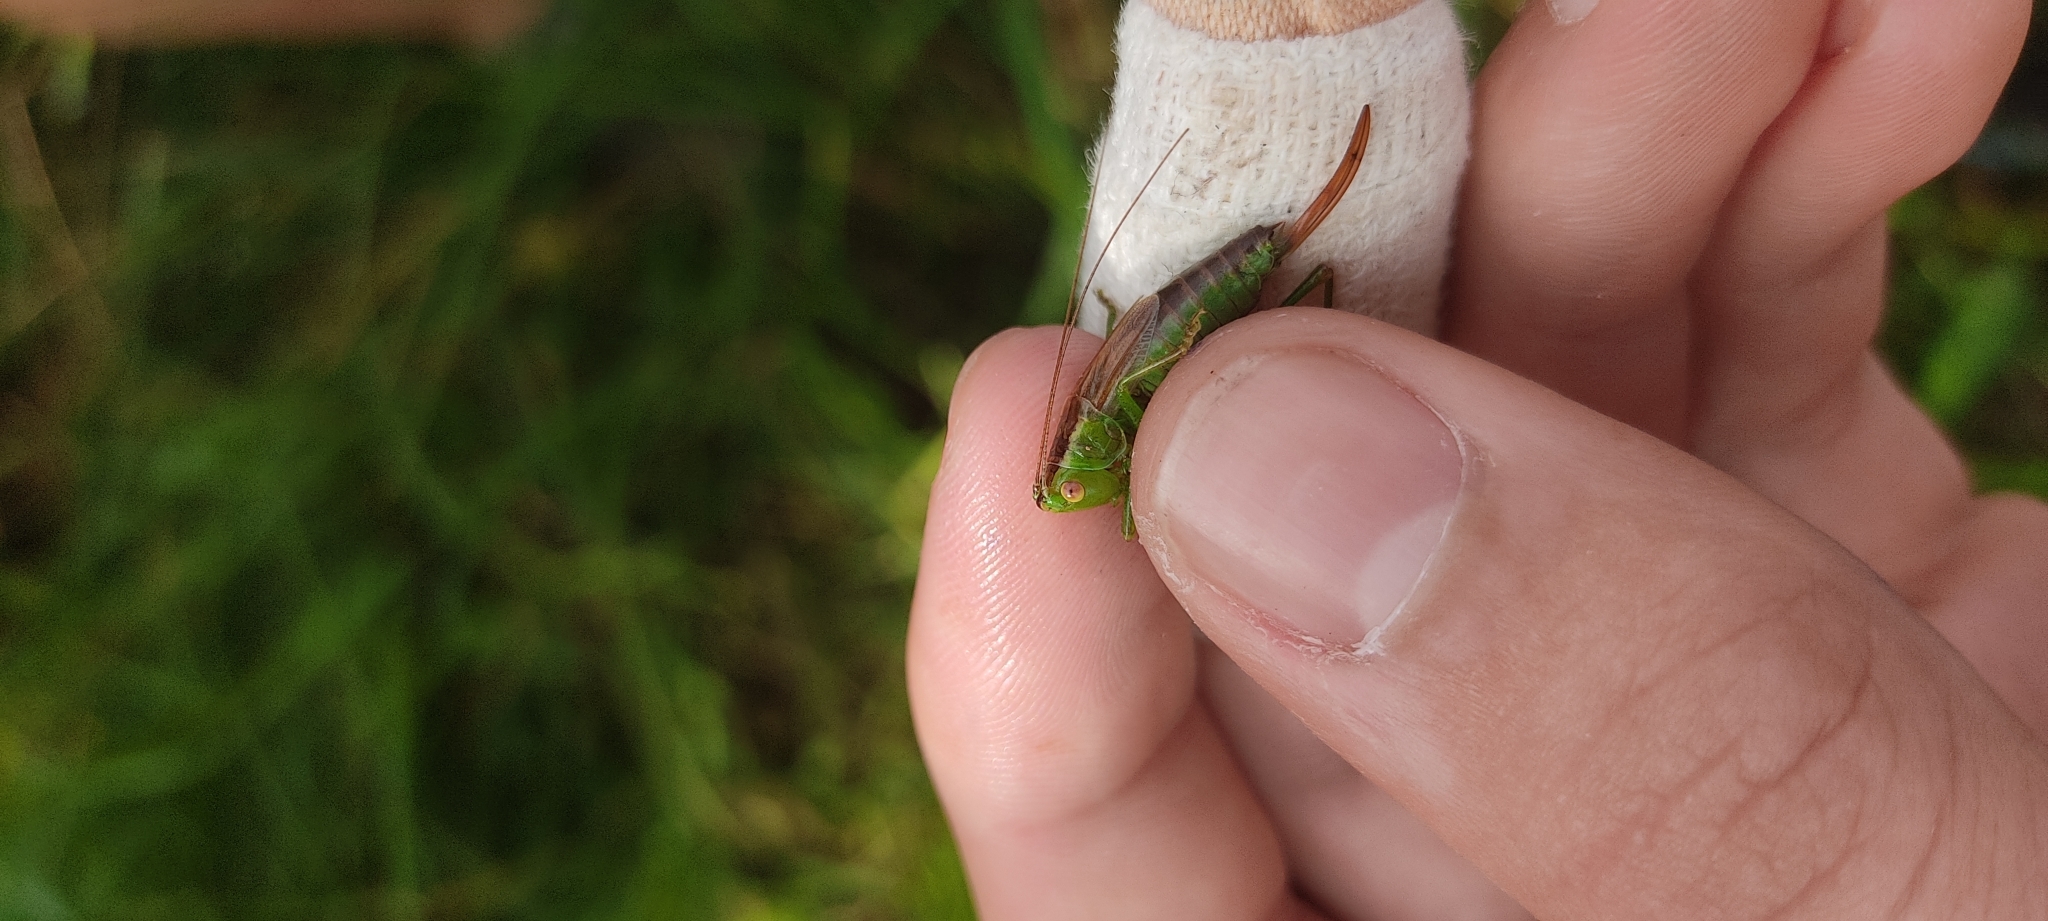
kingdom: Animalia
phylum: Arthropoda
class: Insecta
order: Orthoptera
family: Tettigoniidae
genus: Conocephalus
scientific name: Conocephalus dorsalis
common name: Short-winged conehead
